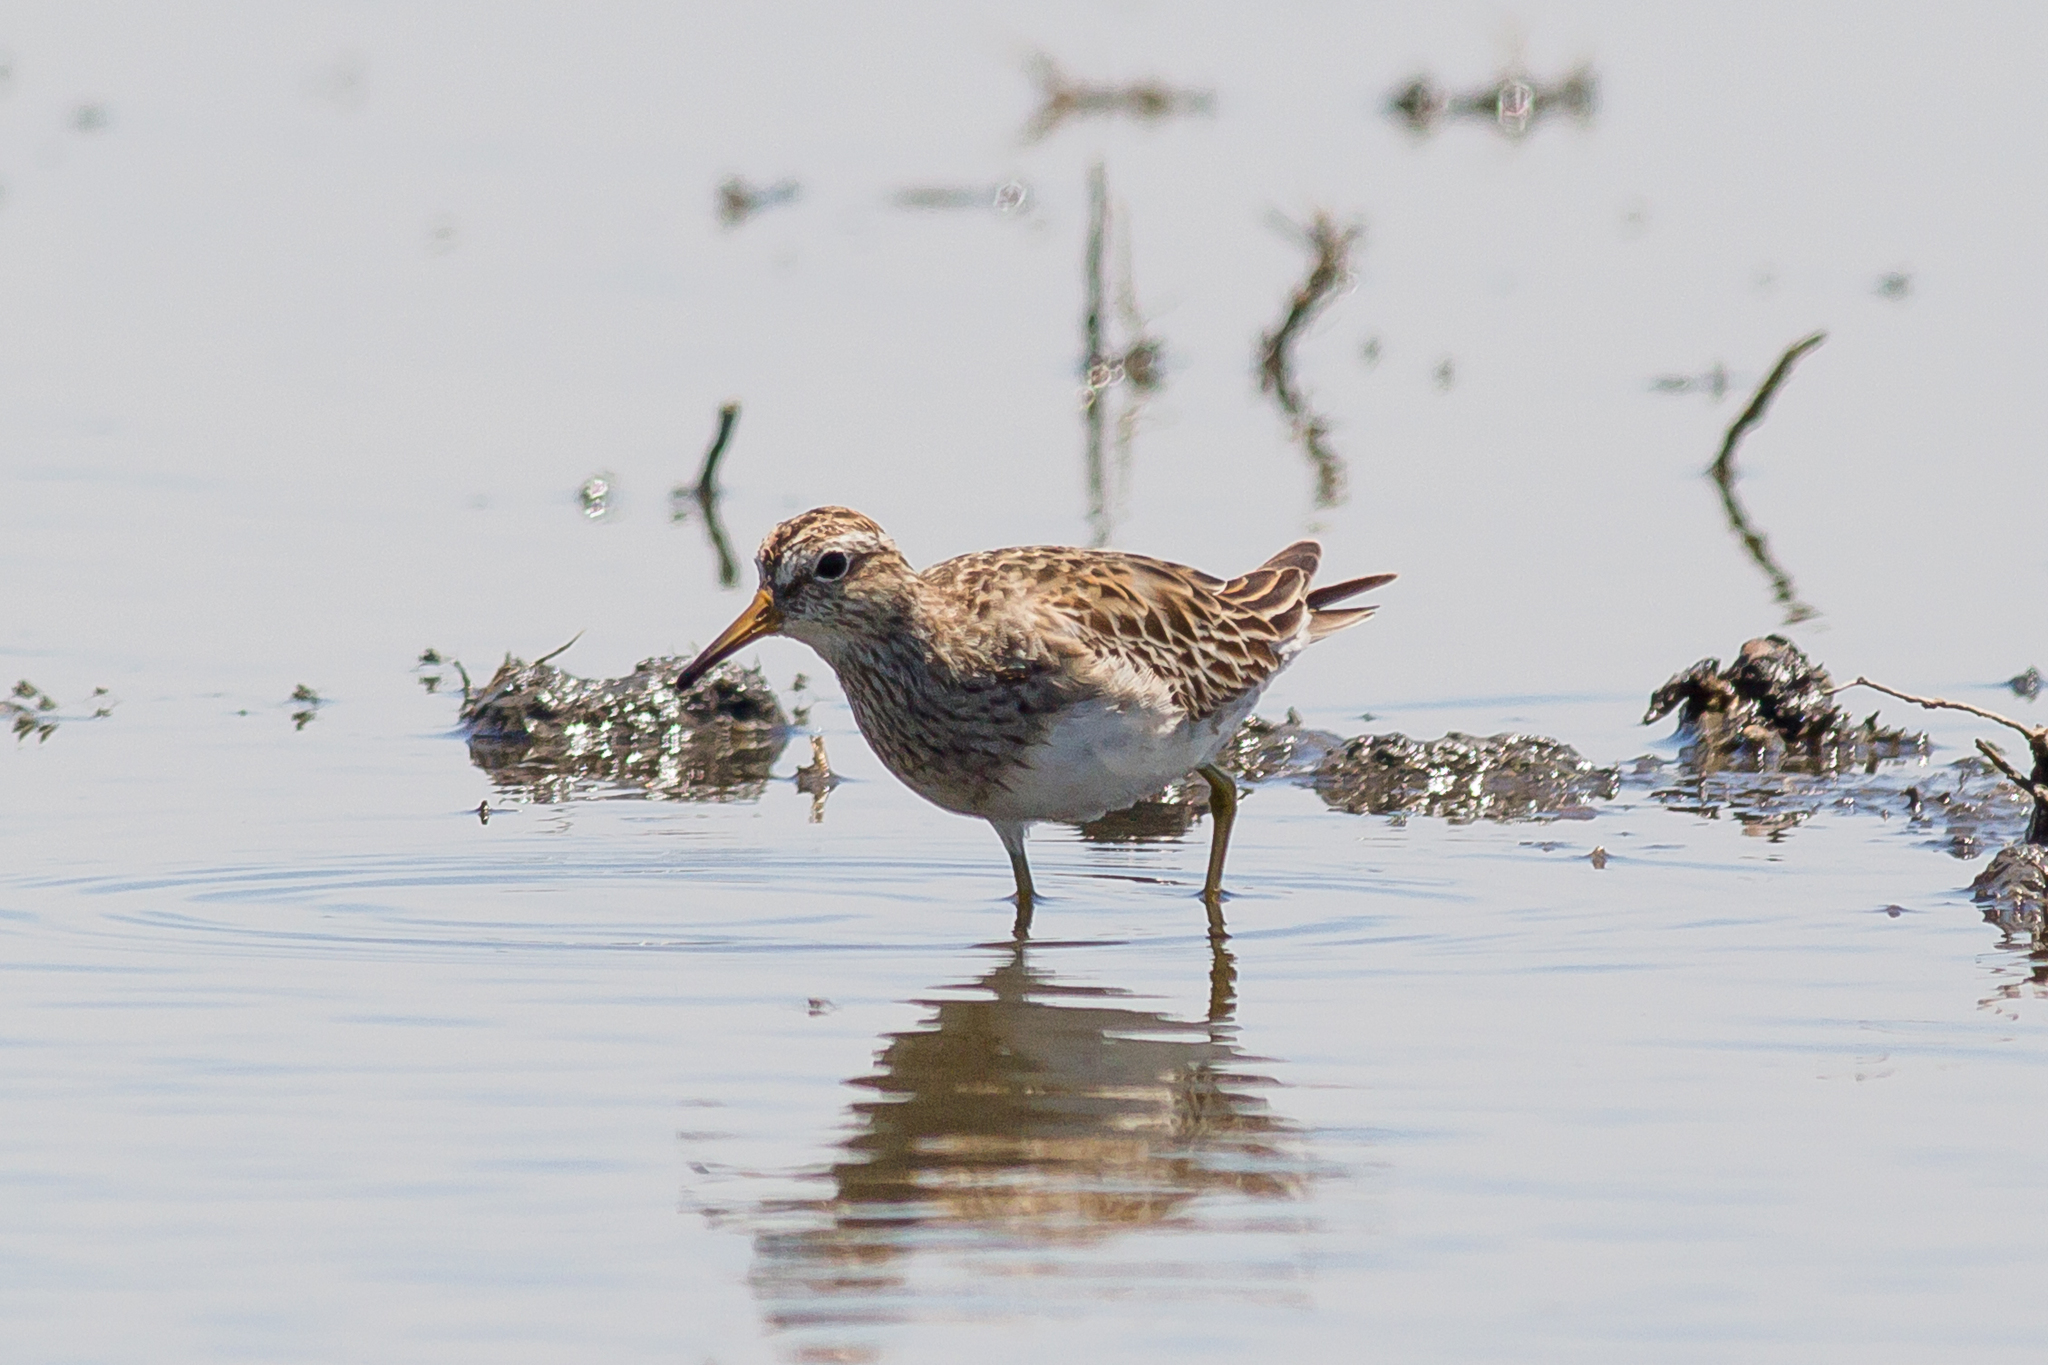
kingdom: Animalia
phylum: Chordata
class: Aves
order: Charadriiformes
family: Scolopacidae
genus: Calidris
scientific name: Calidris melanotos
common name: Pectoral sandpiper
